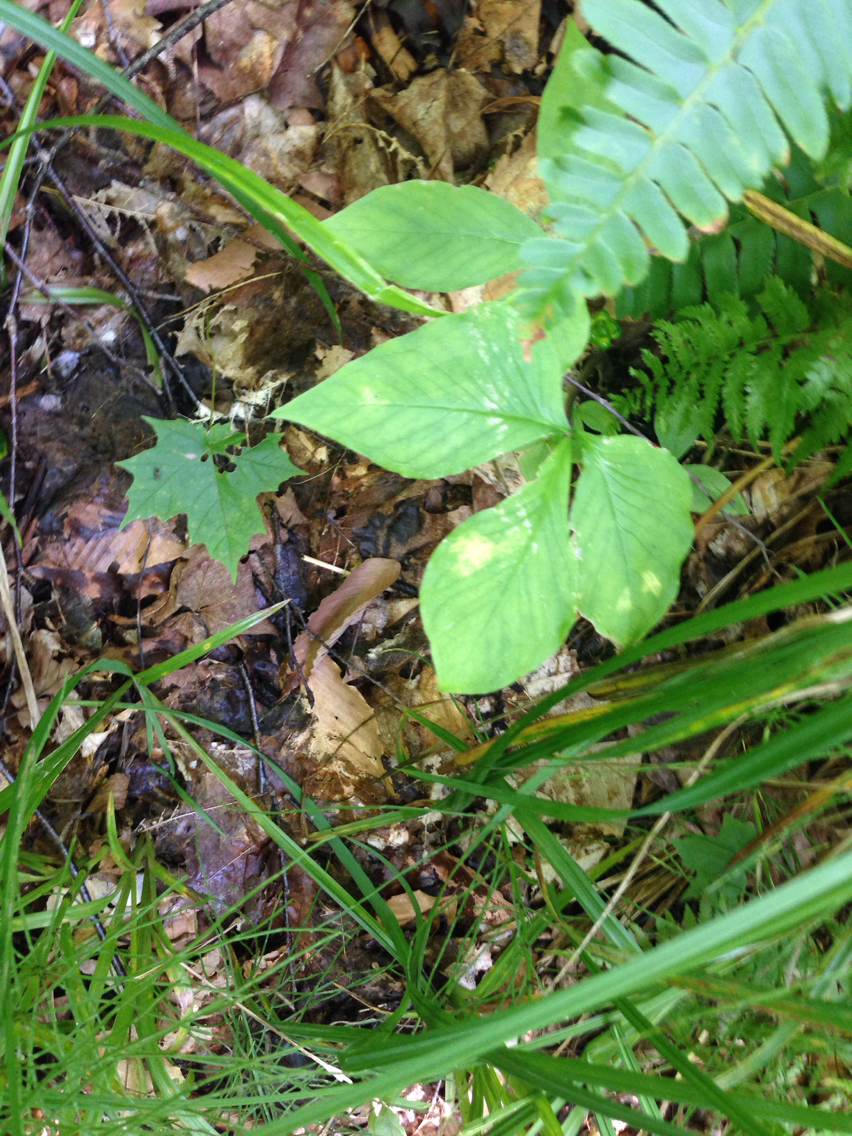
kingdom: Plantae
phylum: Tracheophyta
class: Liliopsida
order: Alismatales
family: Araceae
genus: Arisaema
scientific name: Arisaema triphyllum
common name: Jack-in-the-pulpit
